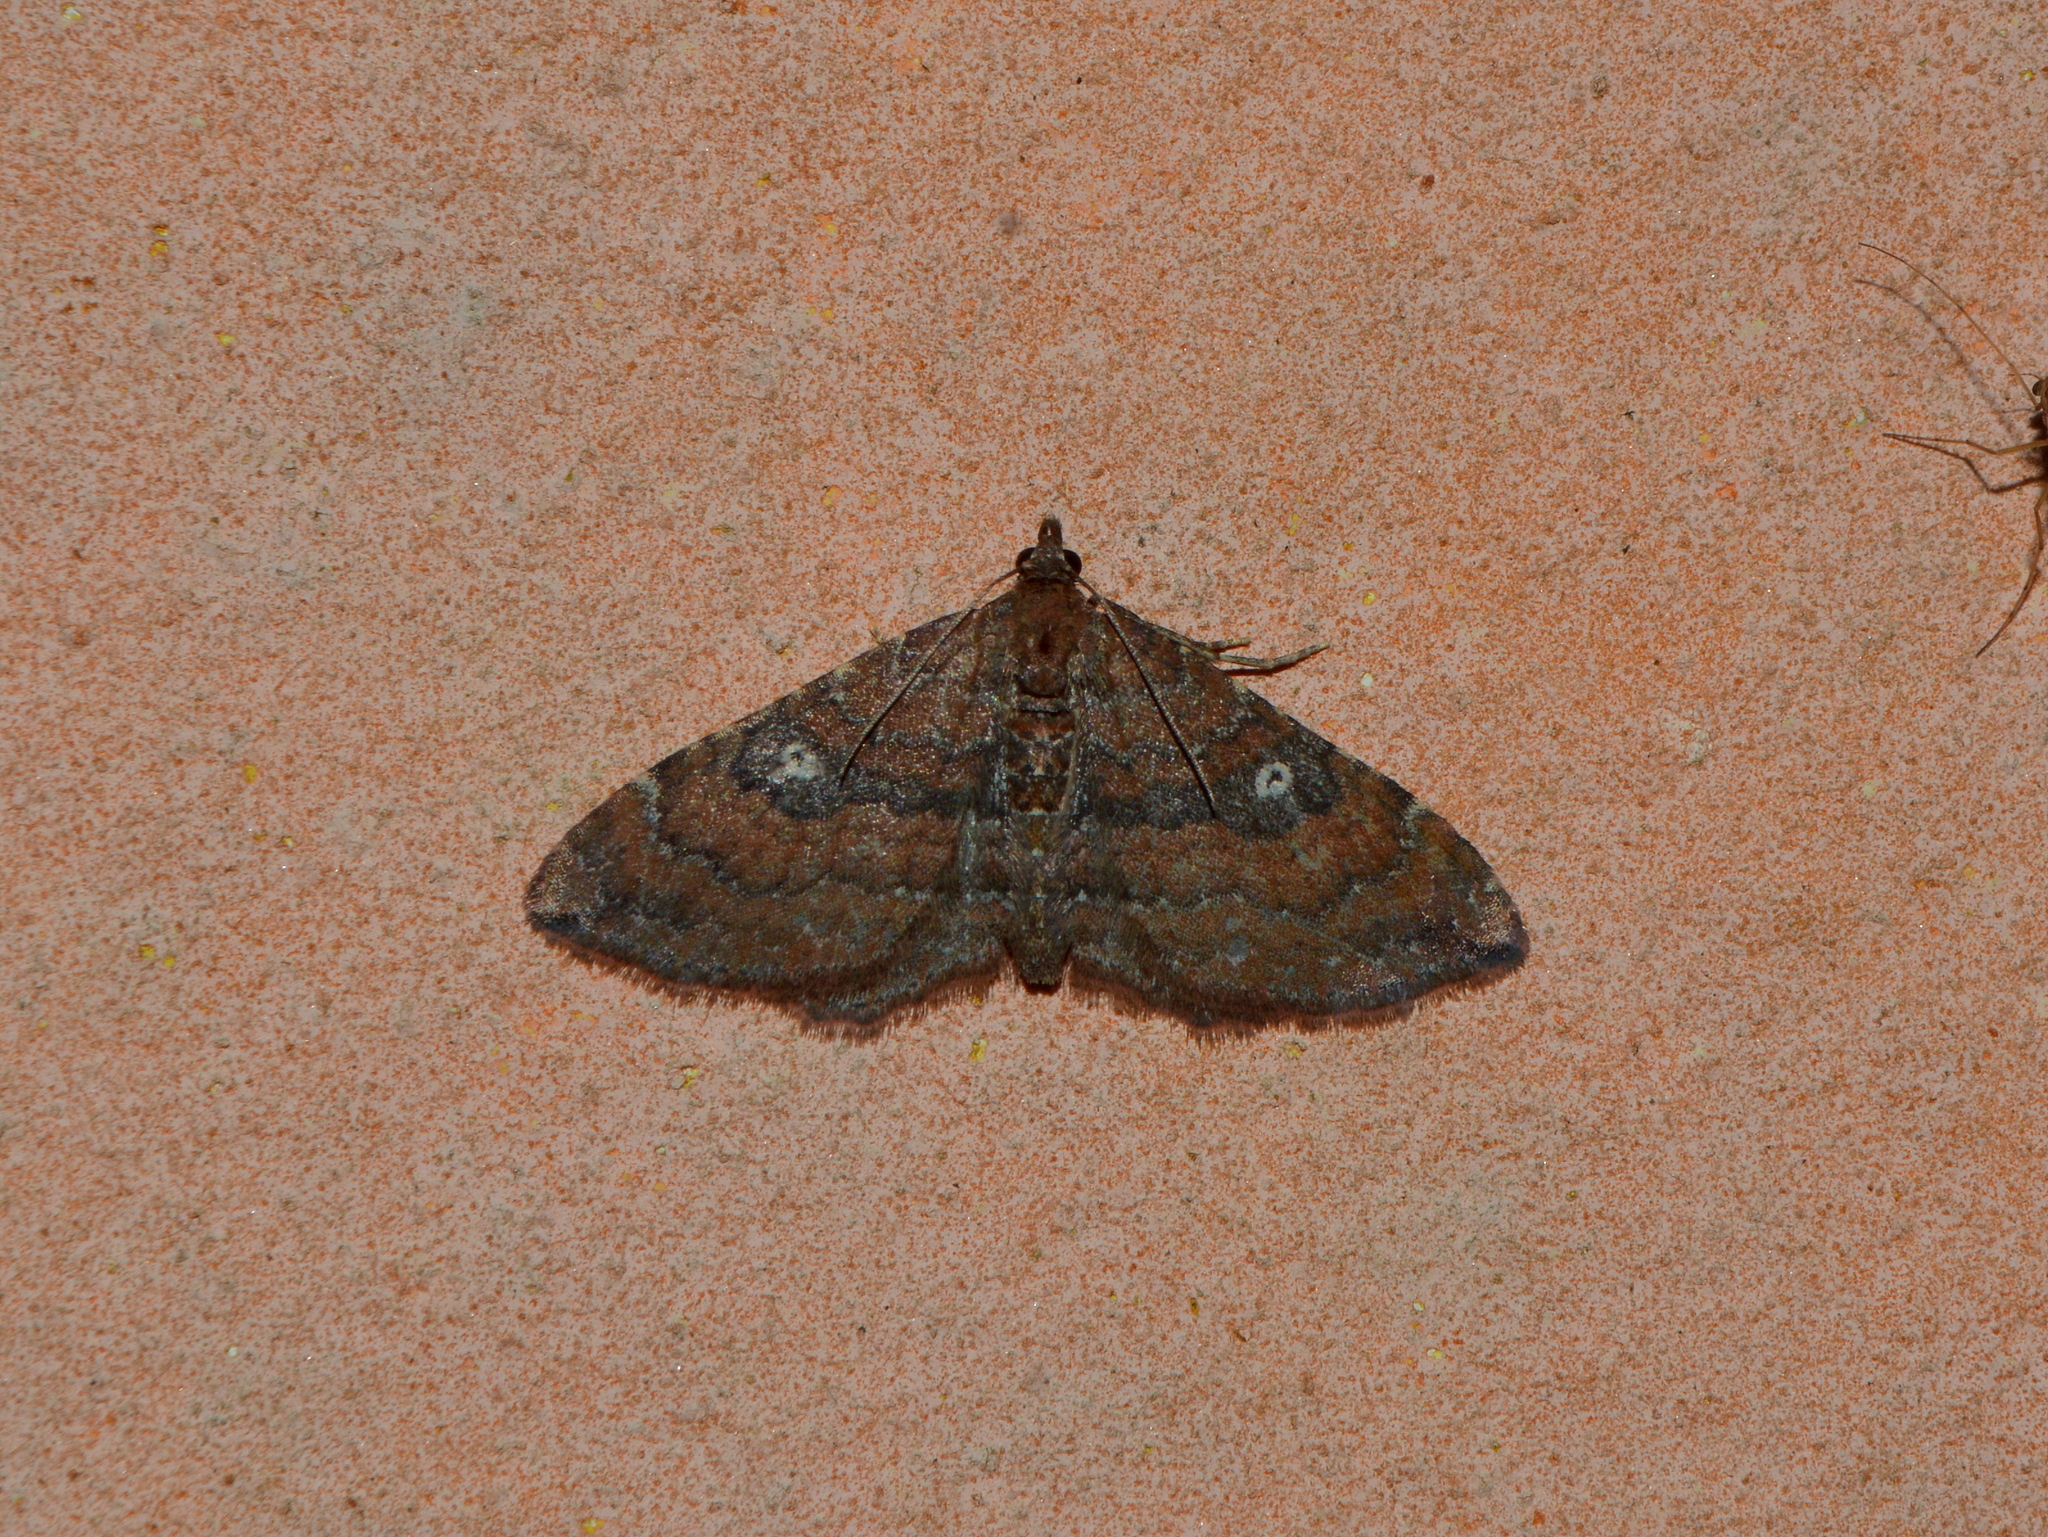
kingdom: Animalia
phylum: Arthropoda
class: Insecta
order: Lepidoptera
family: Geometridae
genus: Orthonama
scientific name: Orthonama obstipata
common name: The gem
